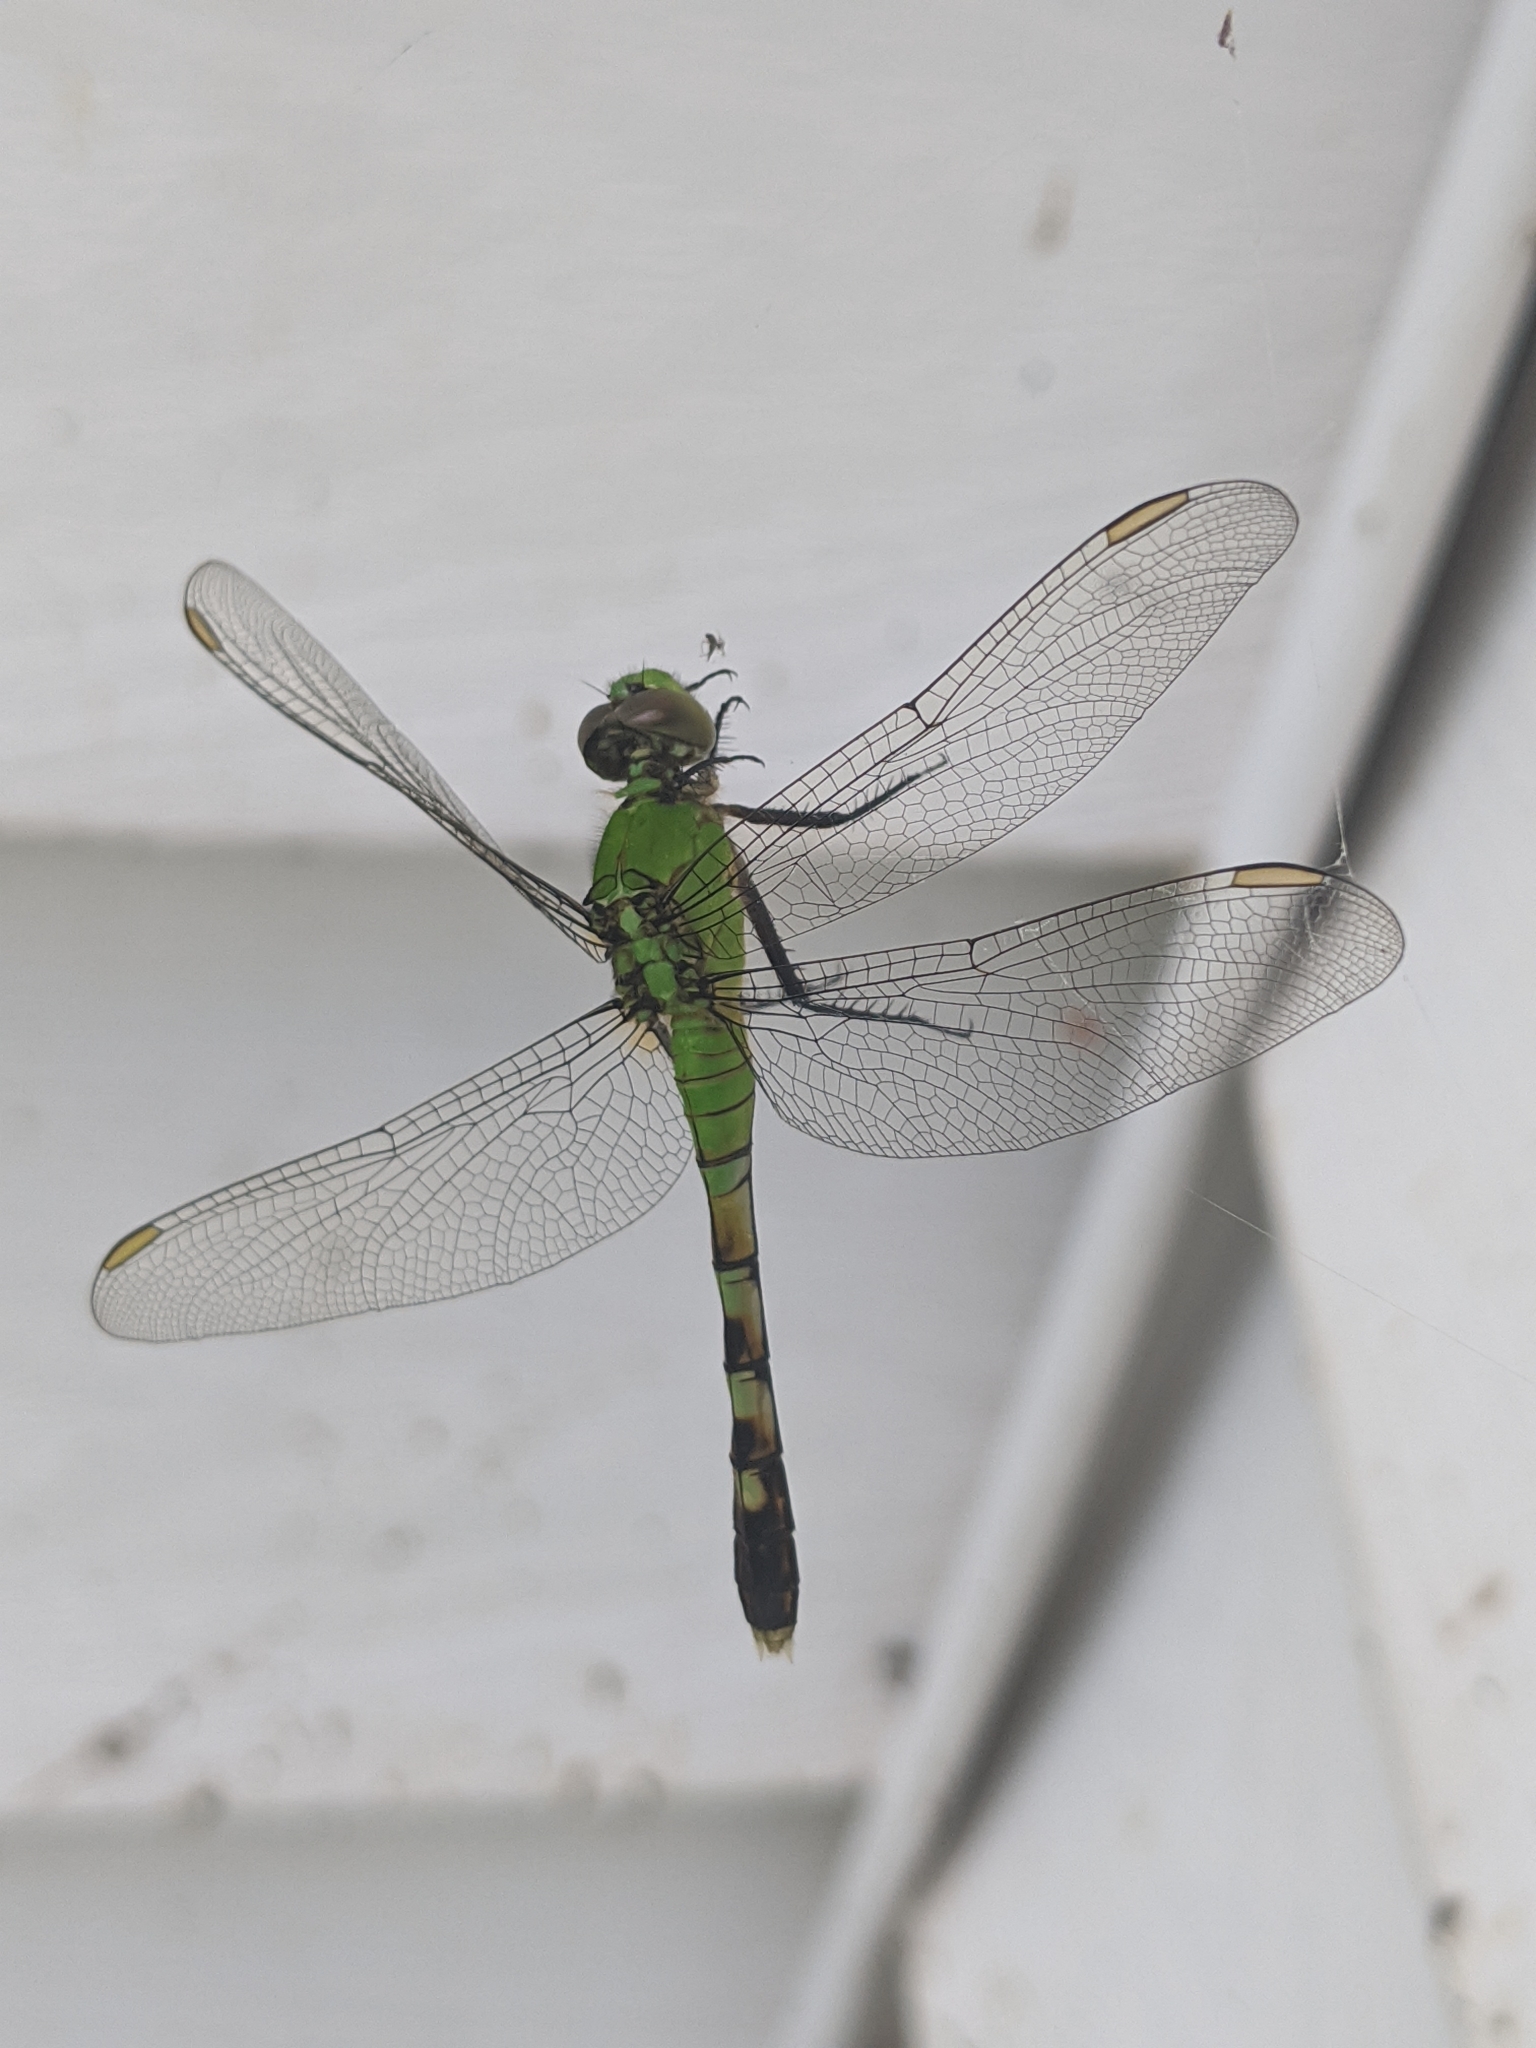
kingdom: Animalia
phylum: Arthropoda
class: Insecta
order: Odonata
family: Libellulidae
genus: Erythemis
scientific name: Erythemis simplicicollis
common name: Eastern pondhawk
